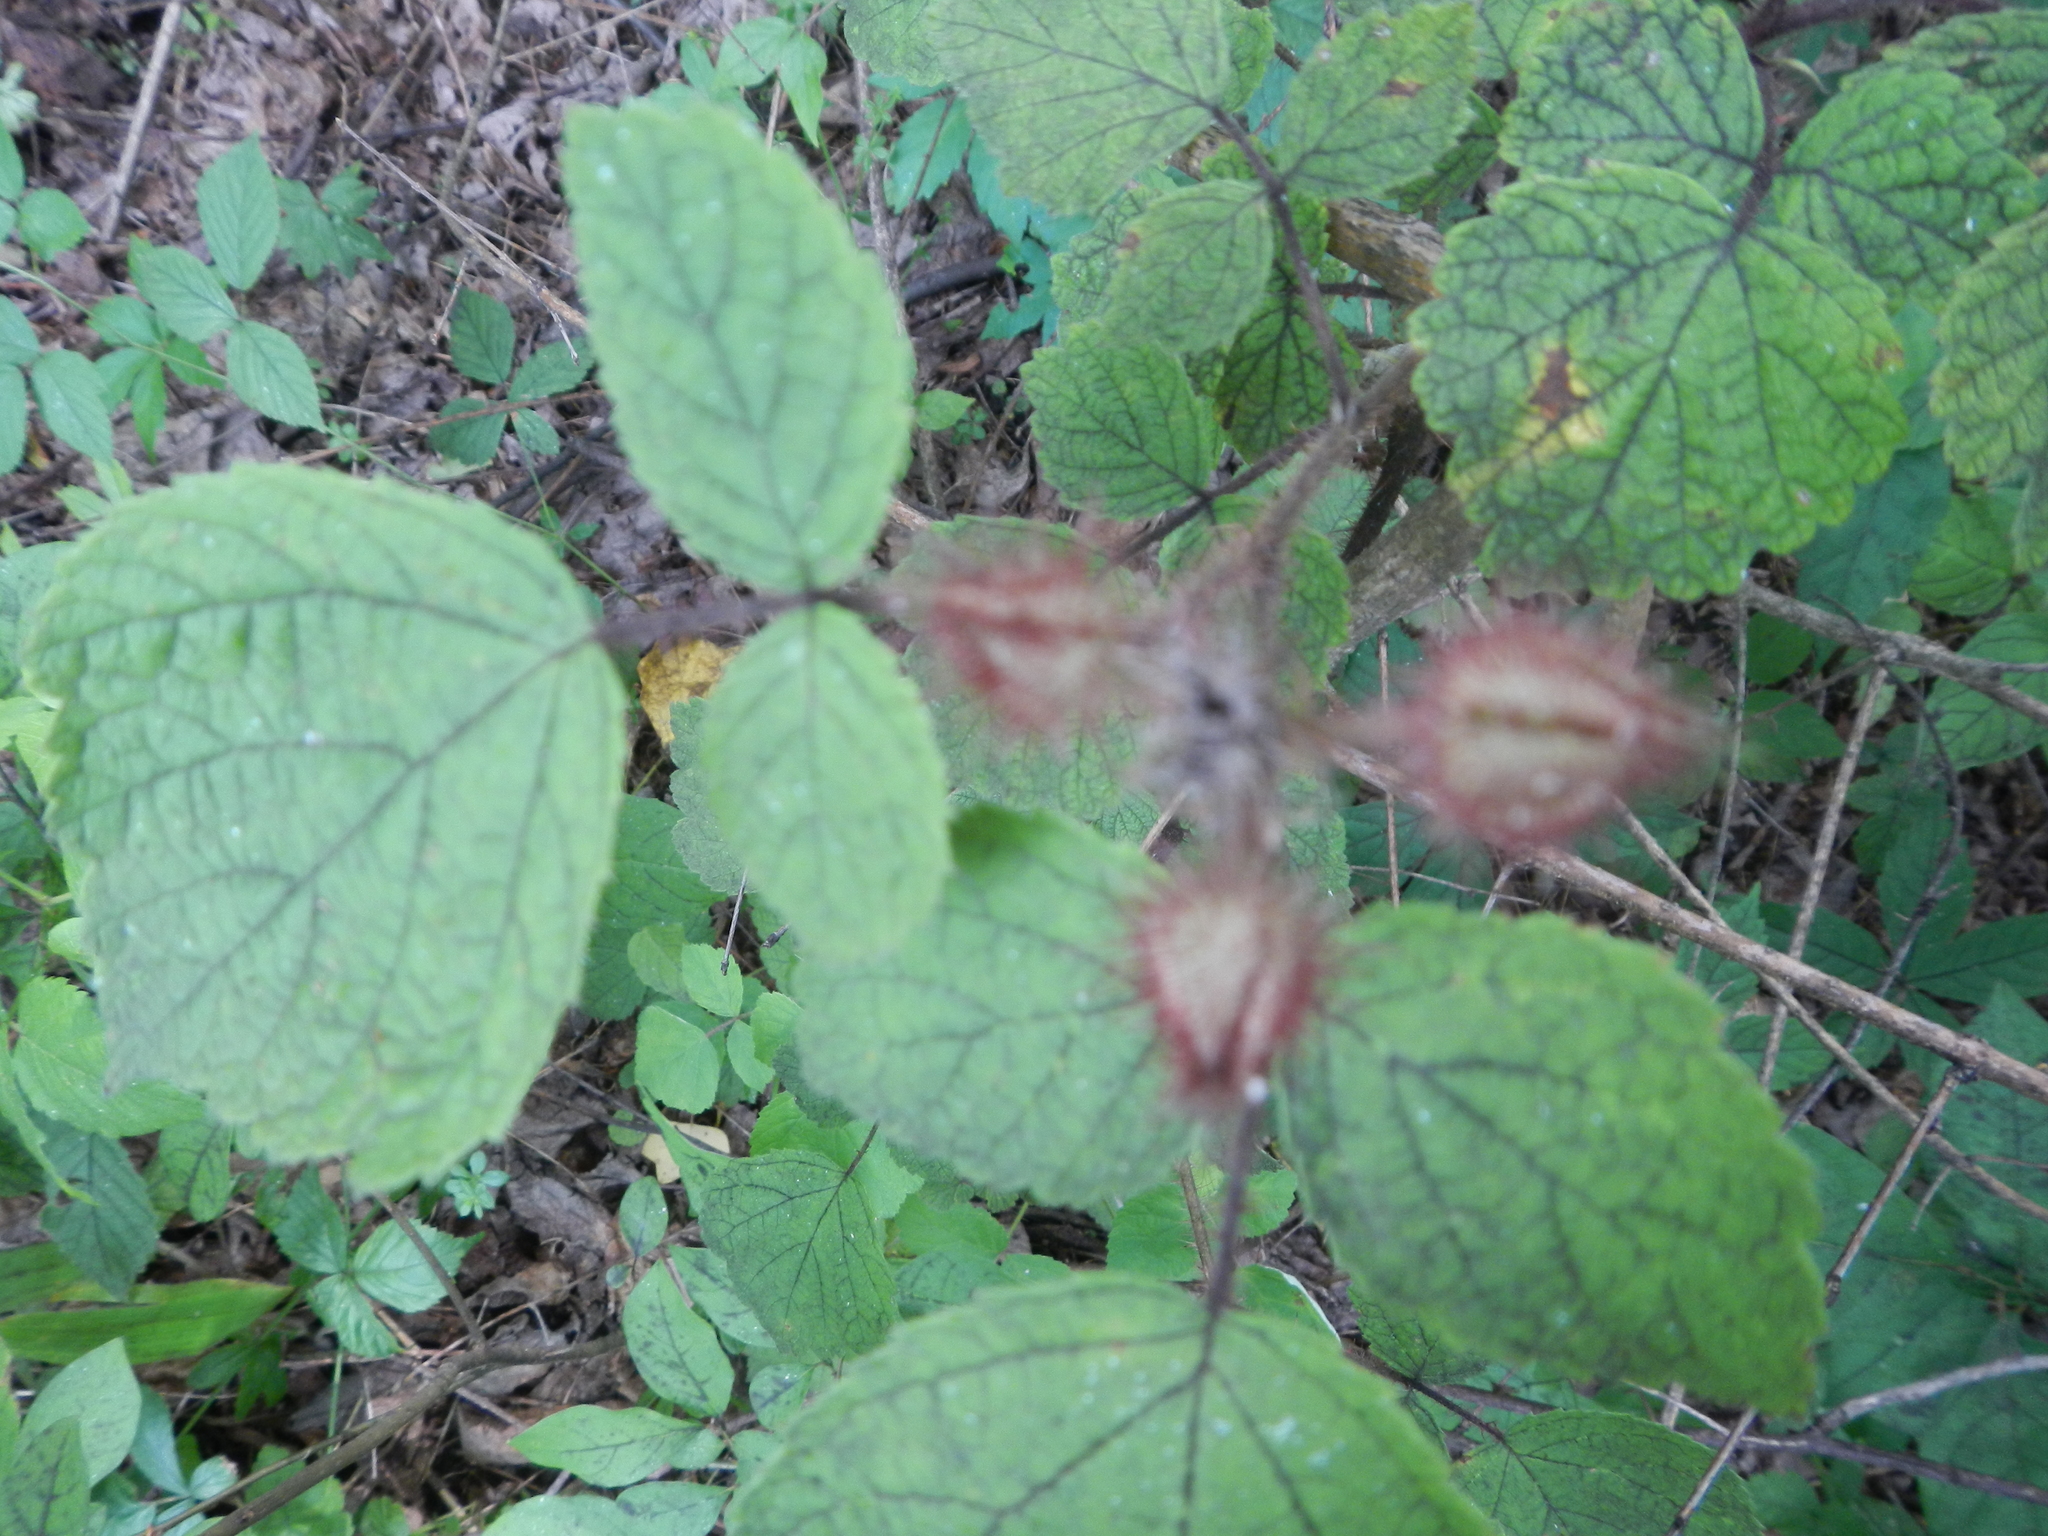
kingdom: Plantae
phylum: Tracheophyta
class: Magnoliopsida
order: Rosales
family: Rosaceae
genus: Rubus
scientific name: Rubus phoenicolasius
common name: Japanese wineberry
